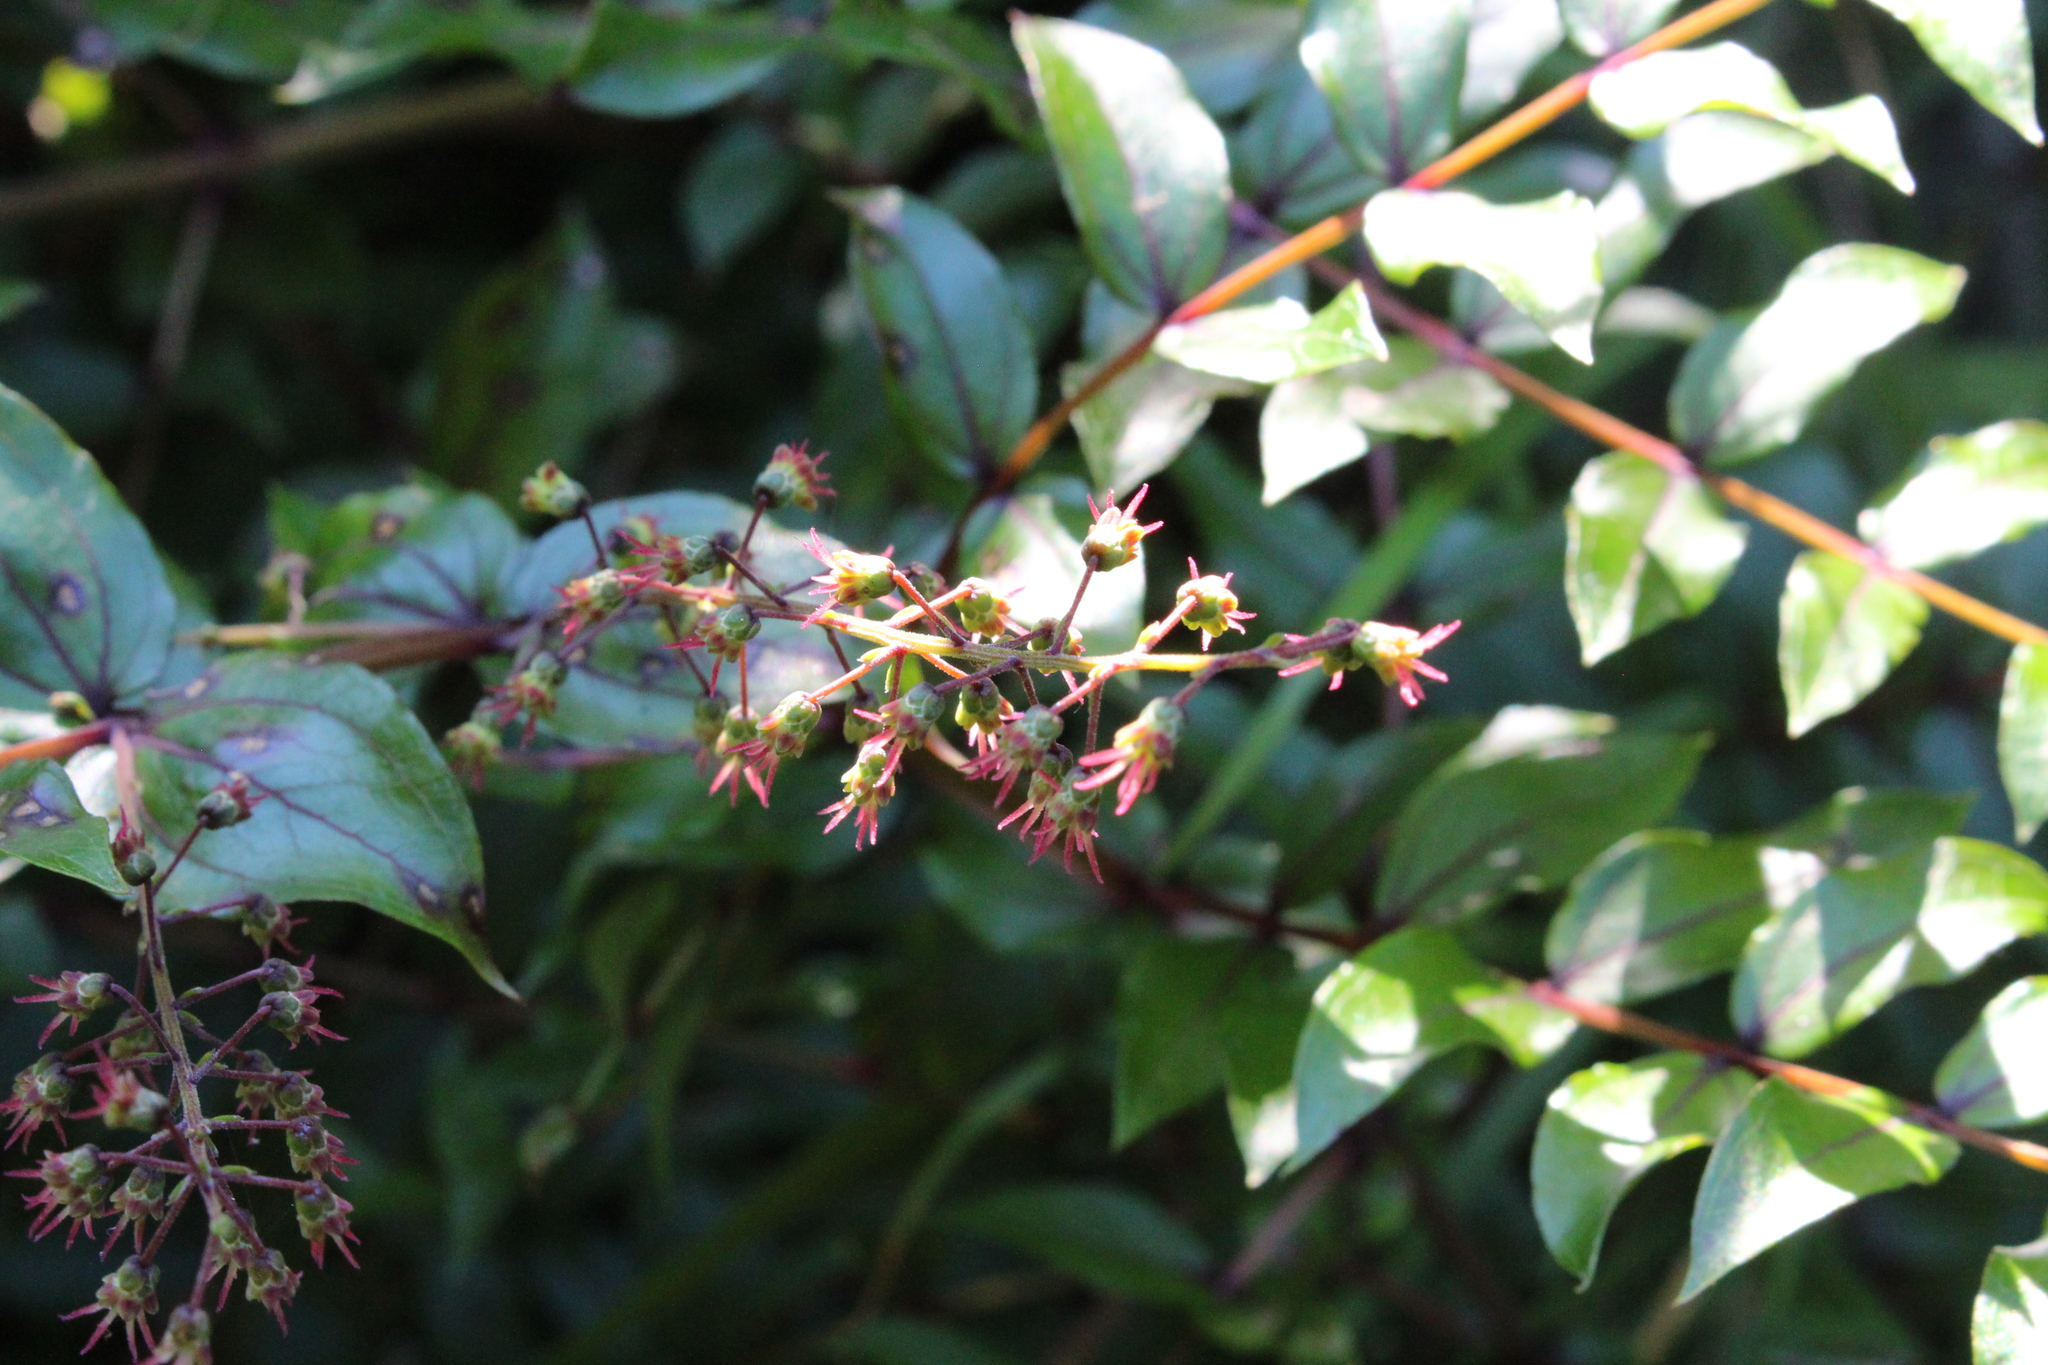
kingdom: Plantae
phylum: Tracheophyta
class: Magnoliopsida
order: Cucurbitales
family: Coriariaceae
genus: Coriaria
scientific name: Coriaria sarmentosa
